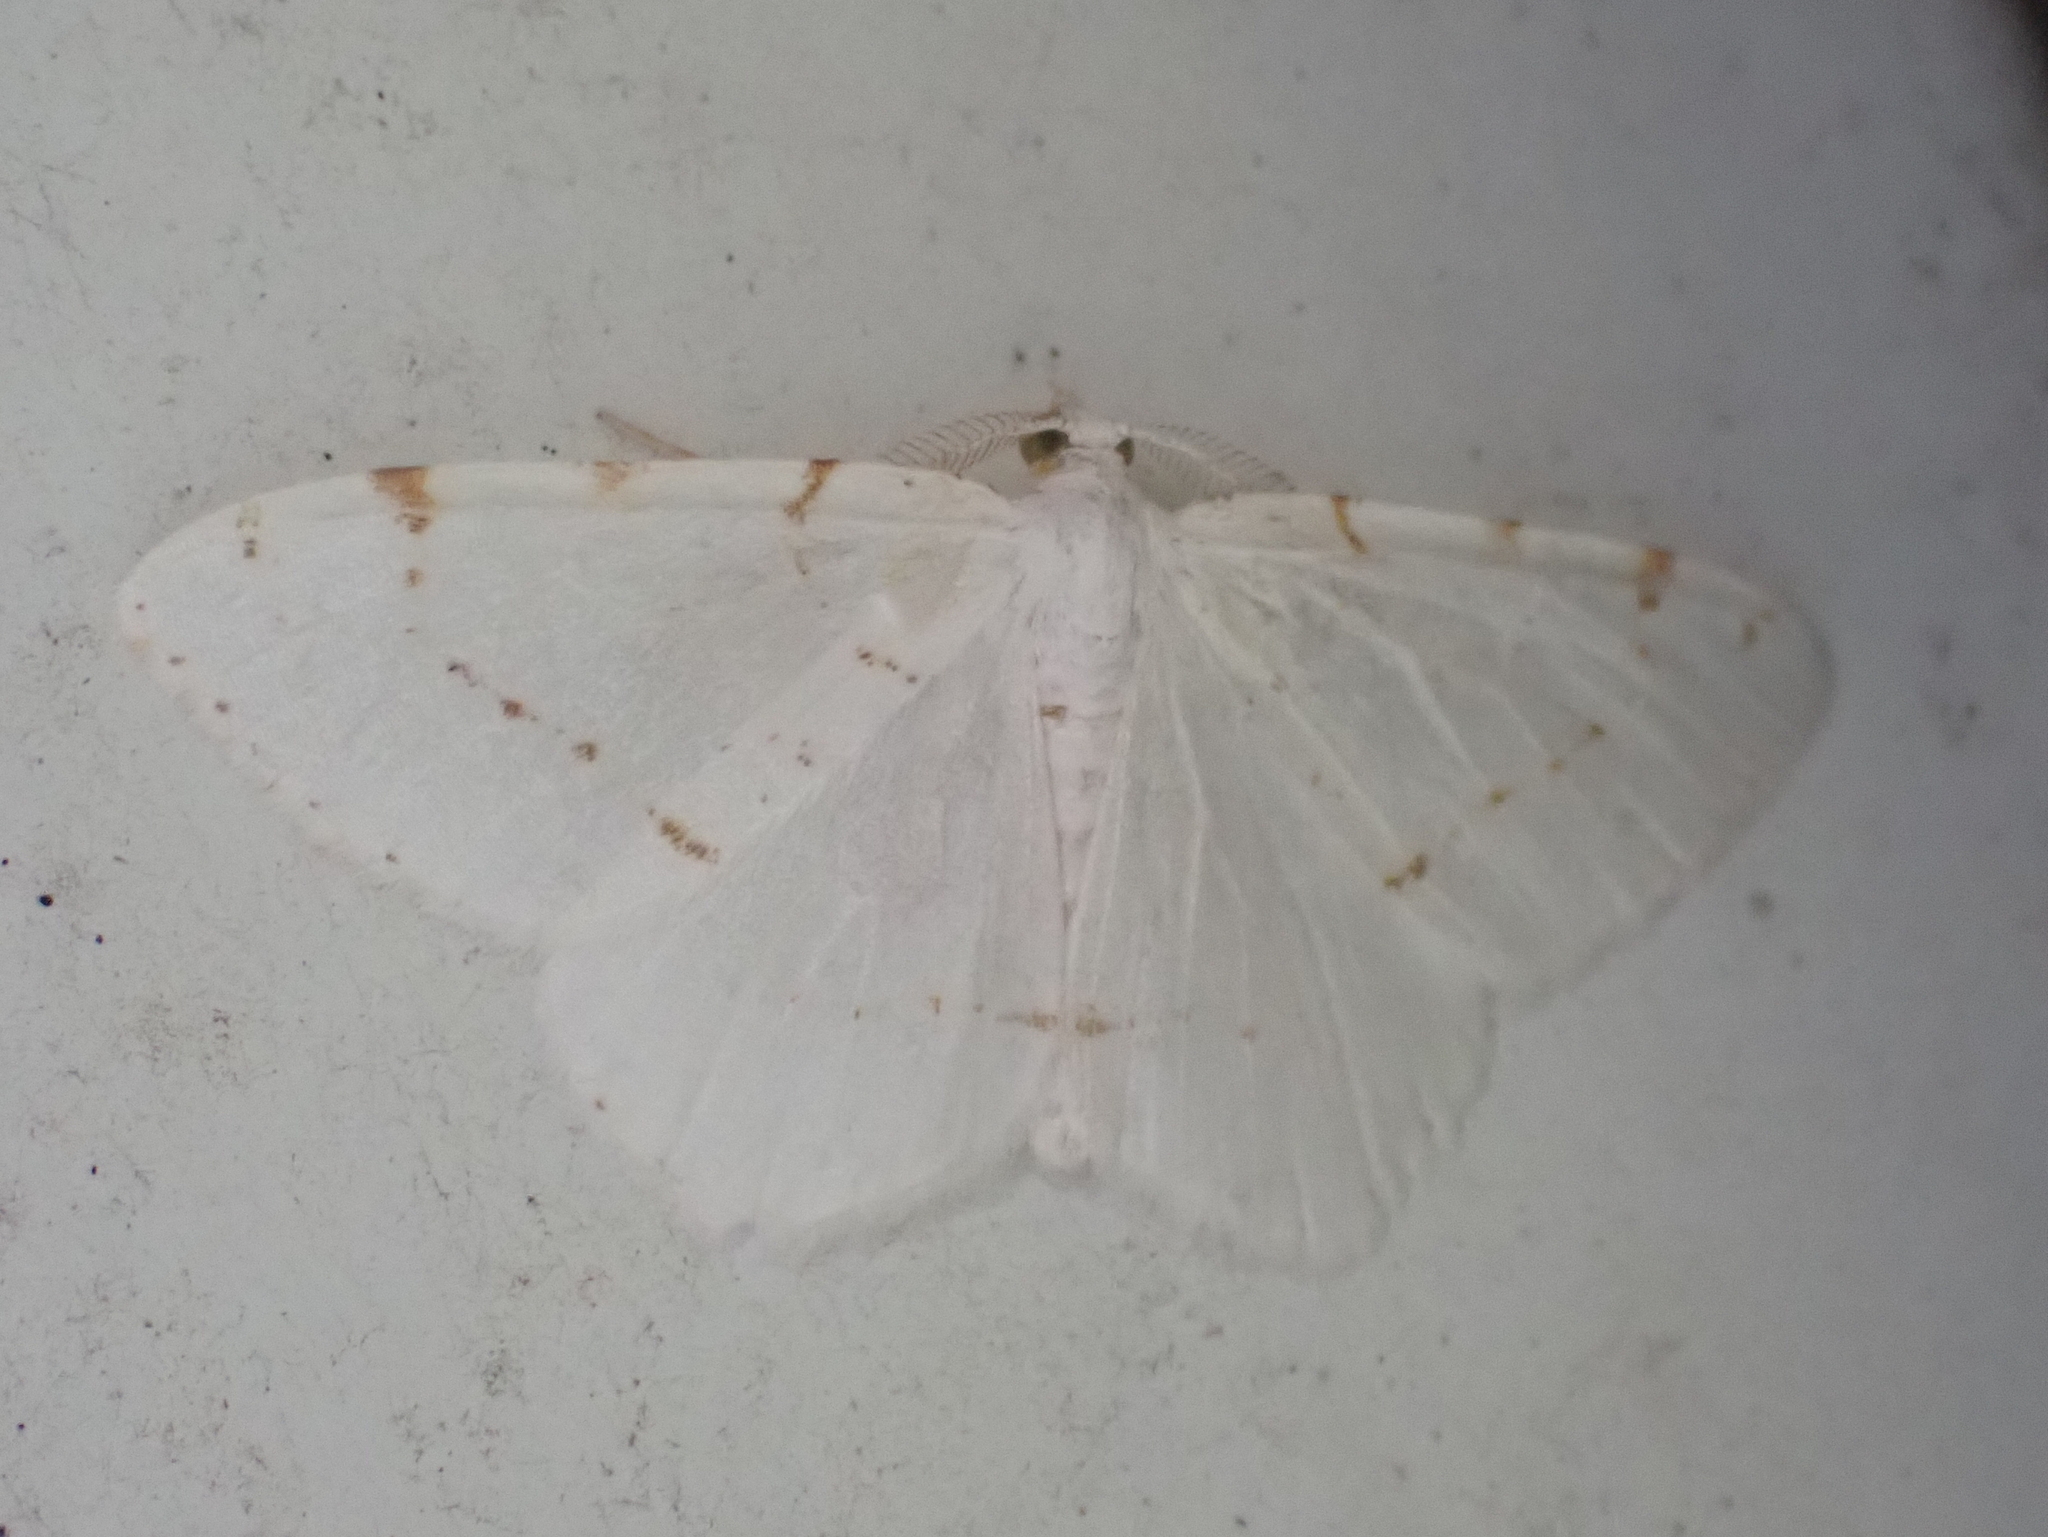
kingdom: Animalia
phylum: Arthropoda
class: Insecta
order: Lepidoptera
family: Geometridae
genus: Macaria
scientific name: Macaria pustularia
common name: Lesser maple spanworm moth
